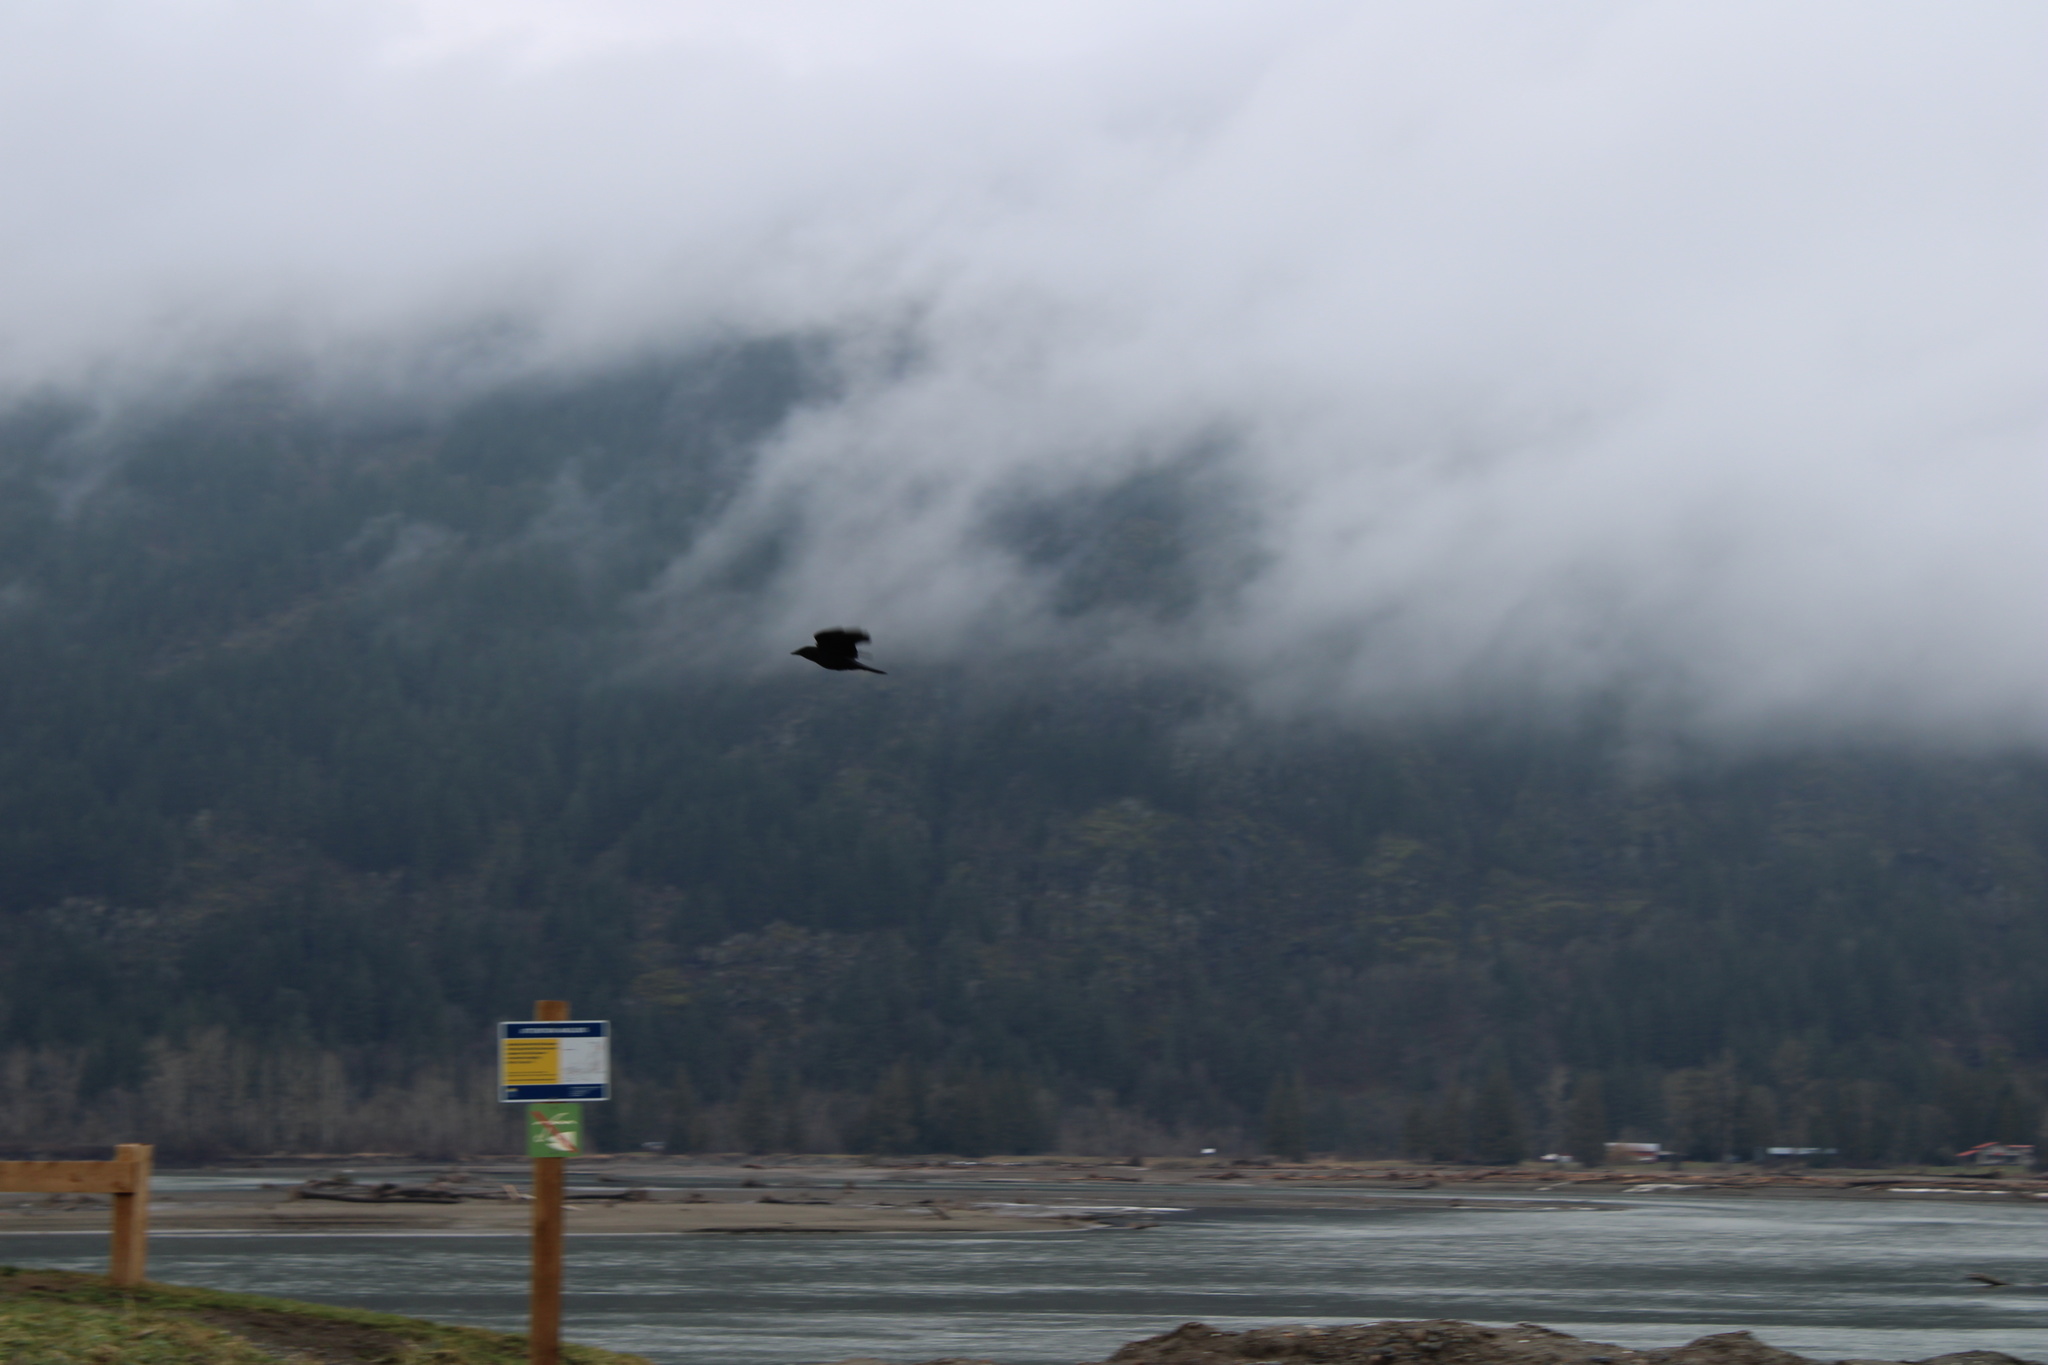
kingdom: Animalia
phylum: Chordata
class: Aves
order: Passeriformes
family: Corvidae
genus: Corvus
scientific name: Corvus brachyrhynchos
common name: American crow
